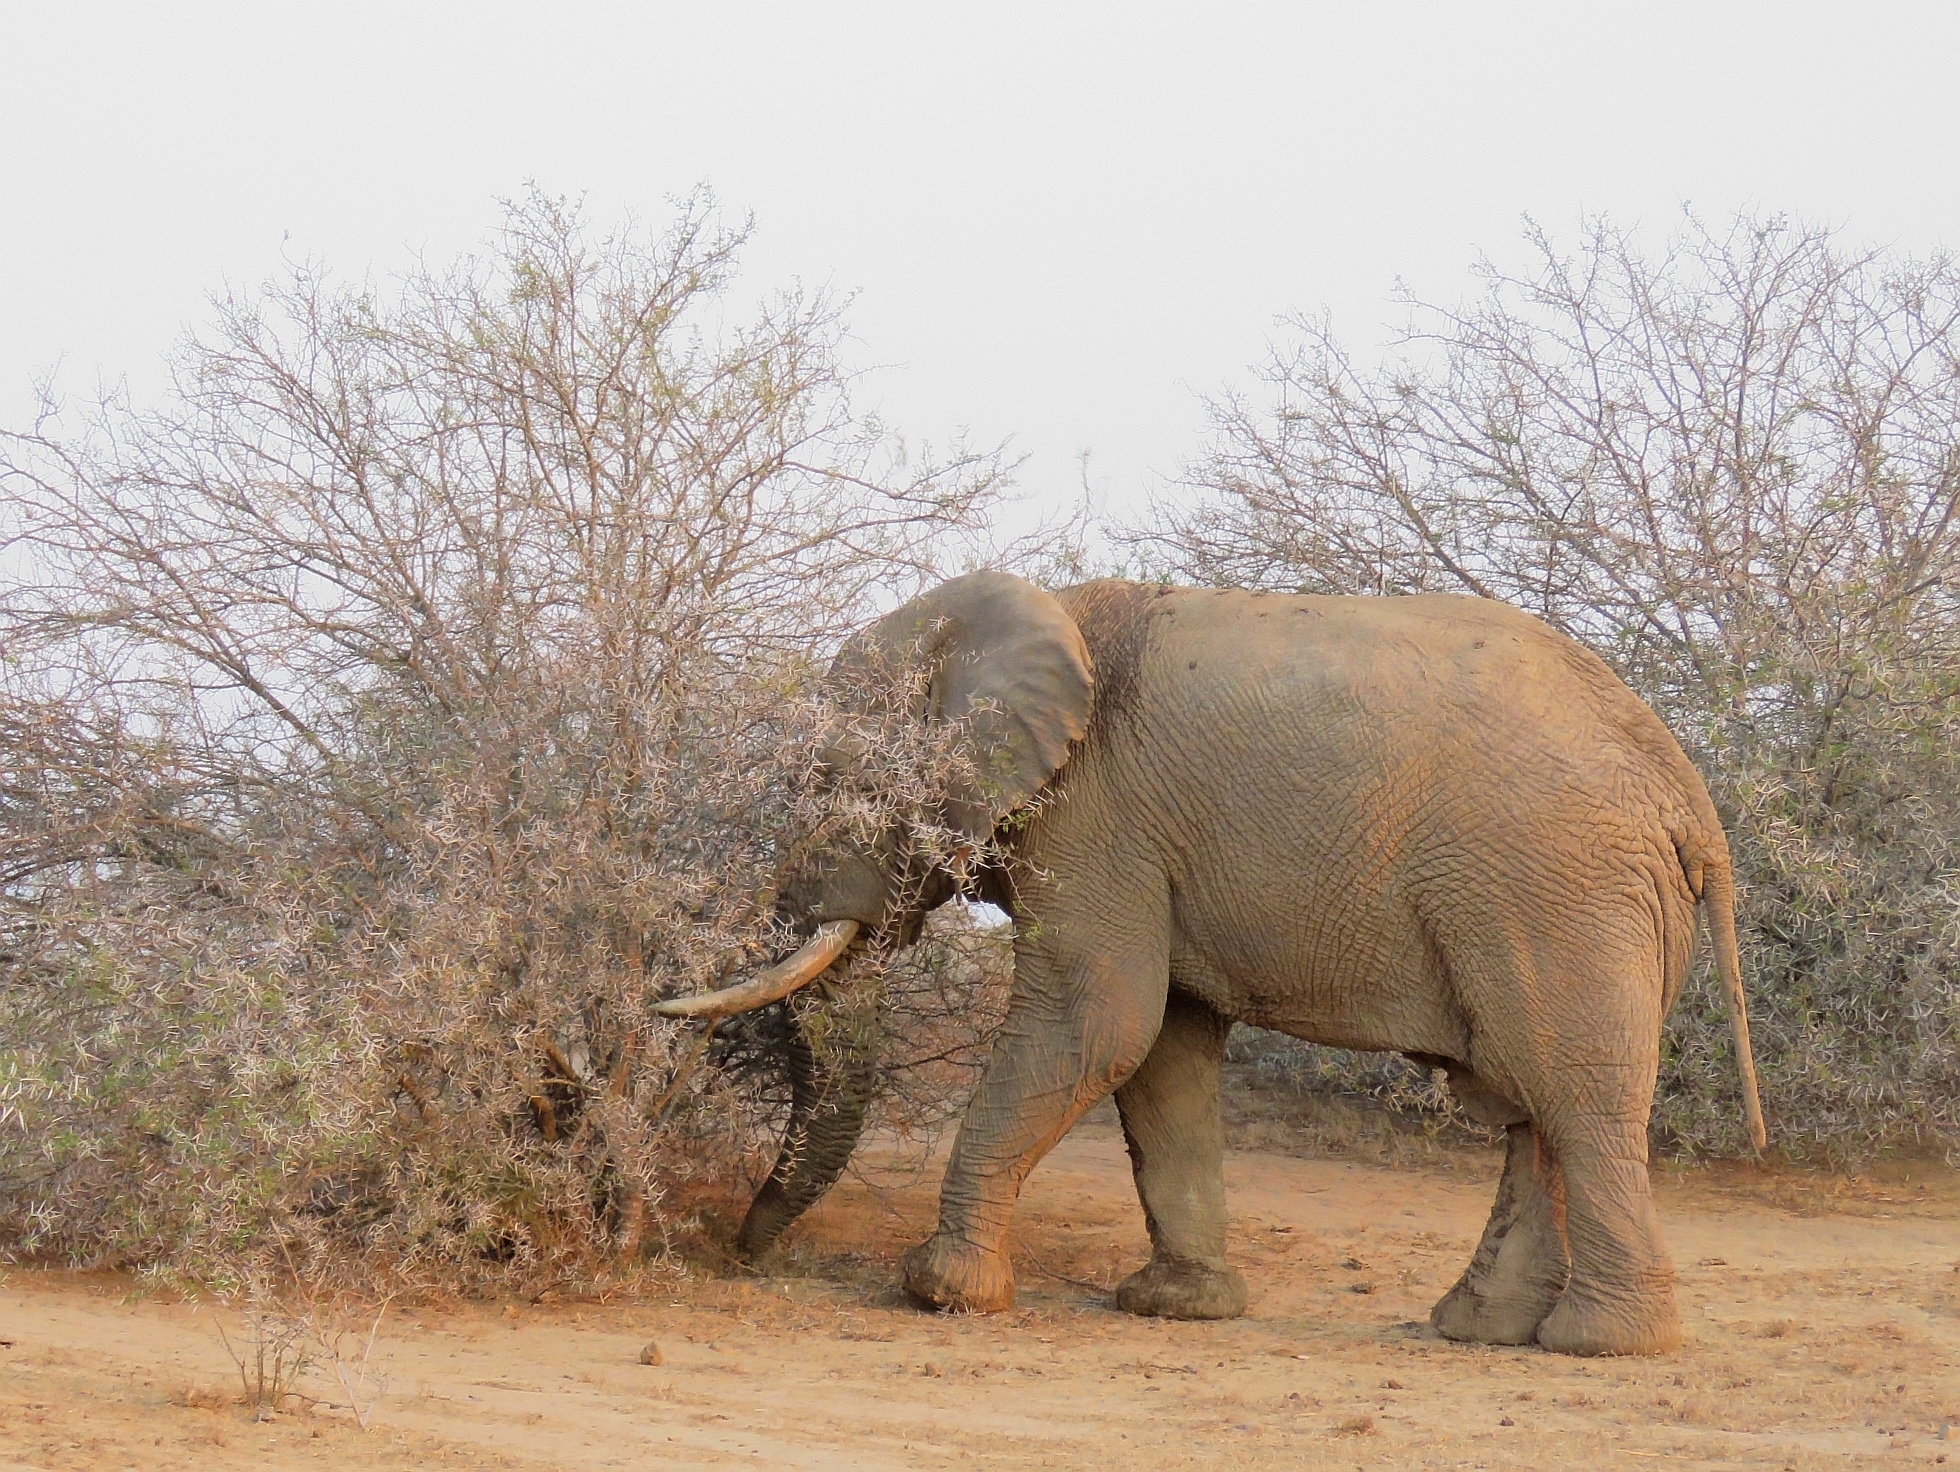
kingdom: Animalia
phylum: Chordata
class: Mammalia
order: Proboscidea
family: Elephantidae
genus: Loxodonta
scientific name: Loxodonta africana
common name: African elephant
